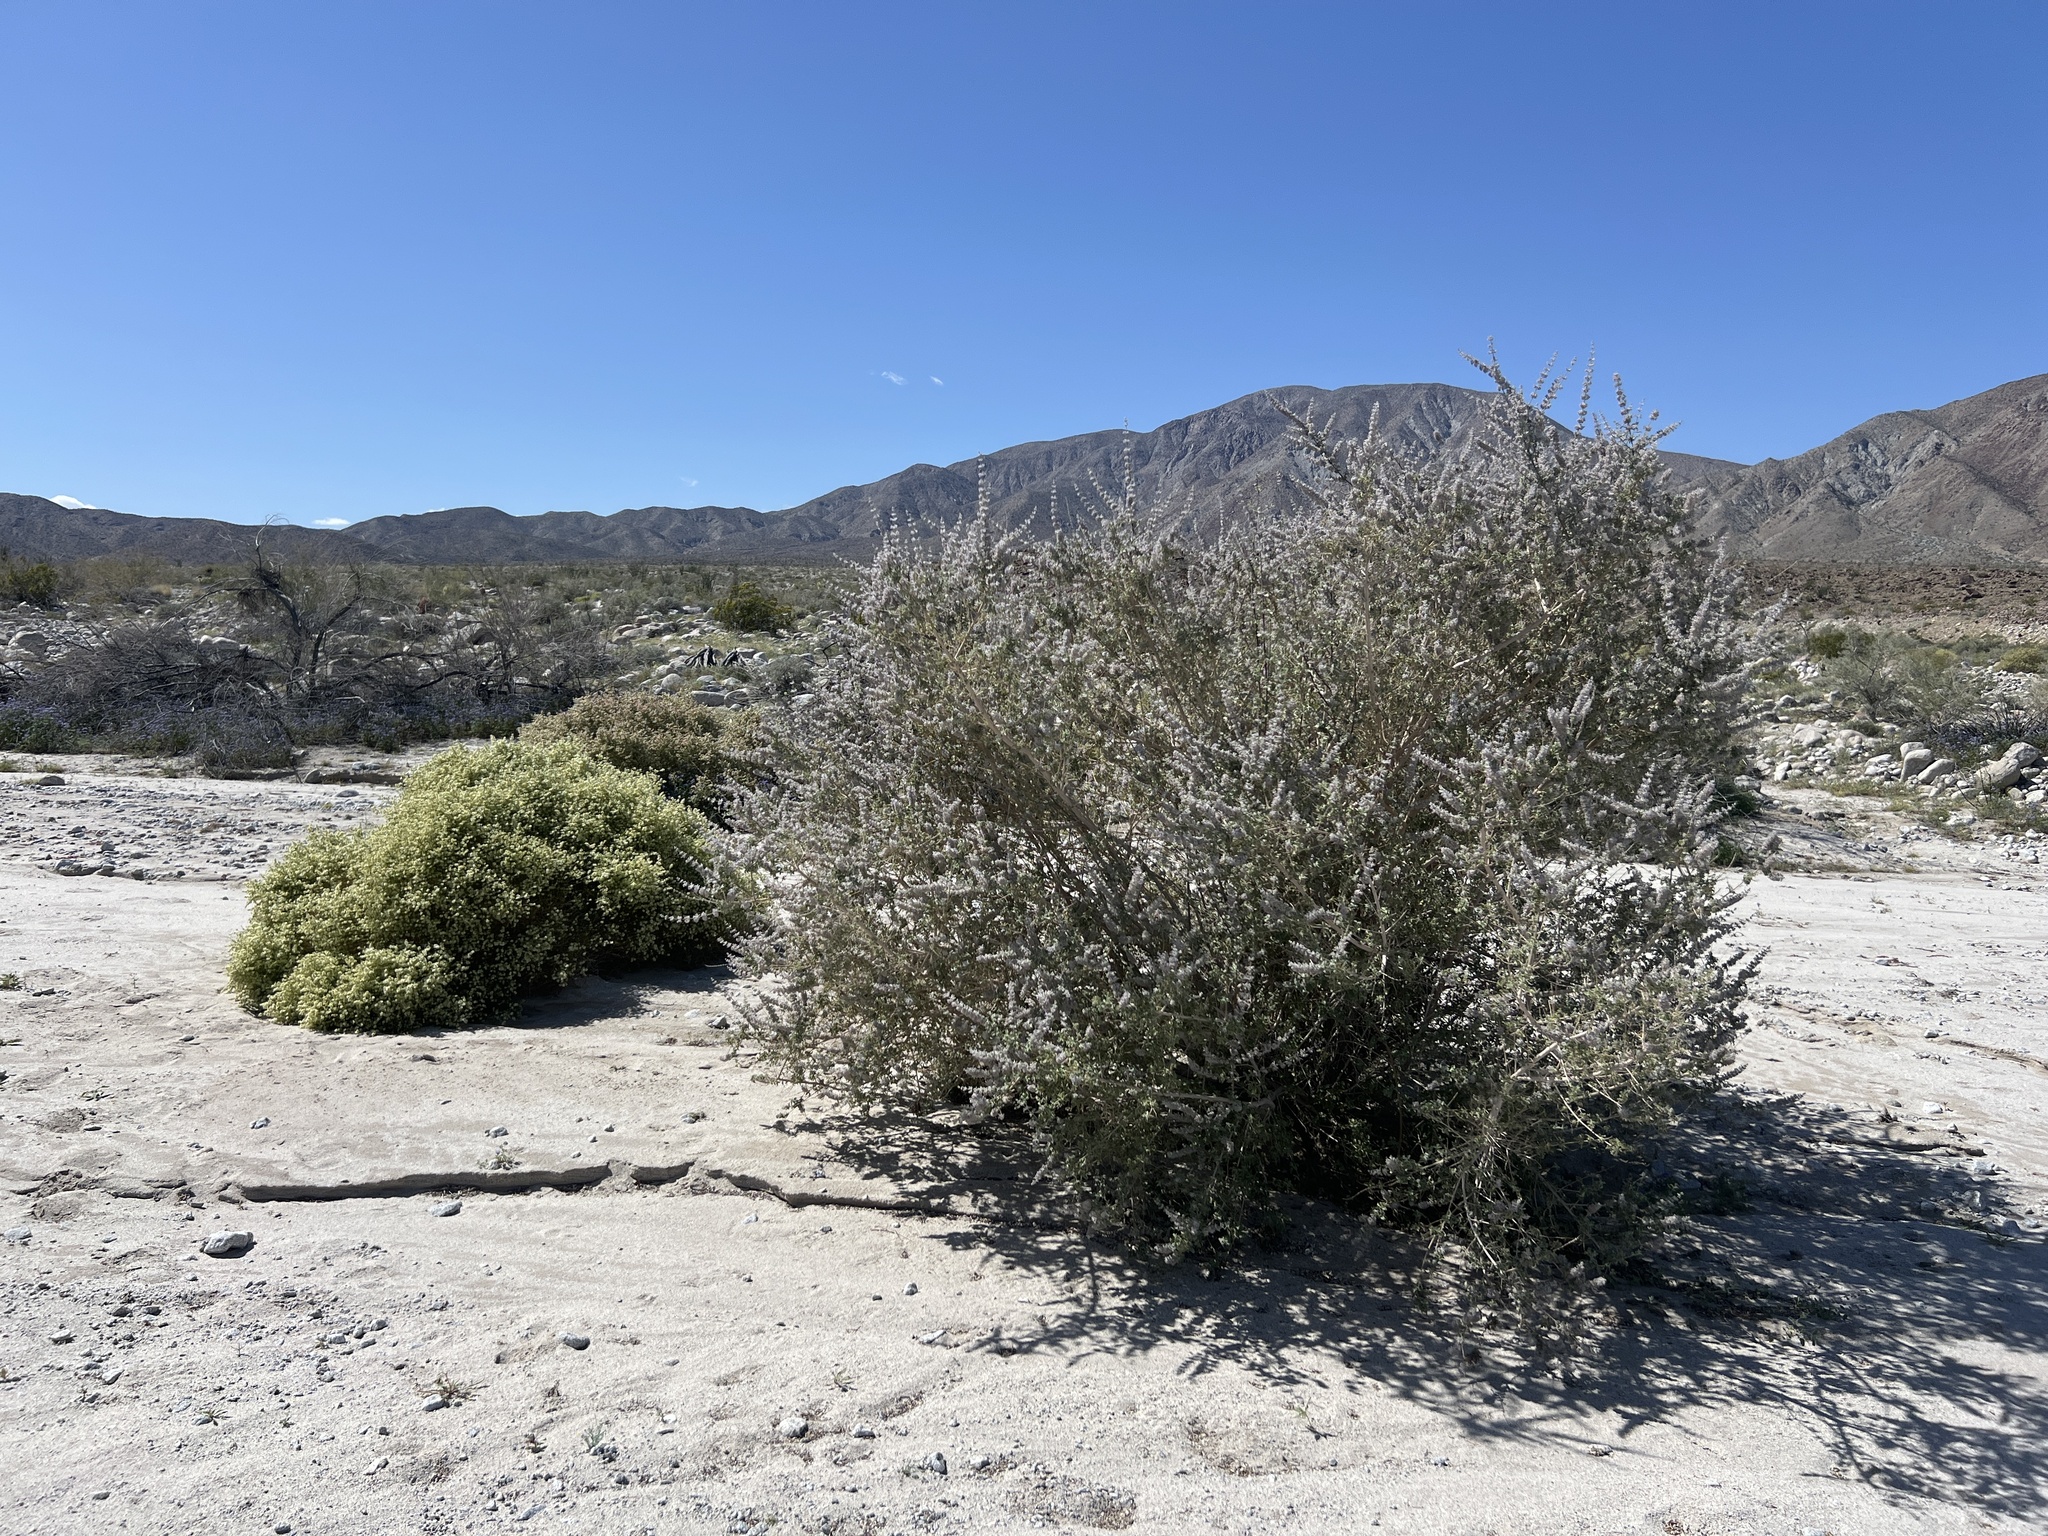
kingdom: Plantae
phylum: Tracheophyta
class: Magnoliopsida
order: Lamiales
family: Lamiaceae
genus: Condea
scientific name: Condea emoryi
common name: Chia
